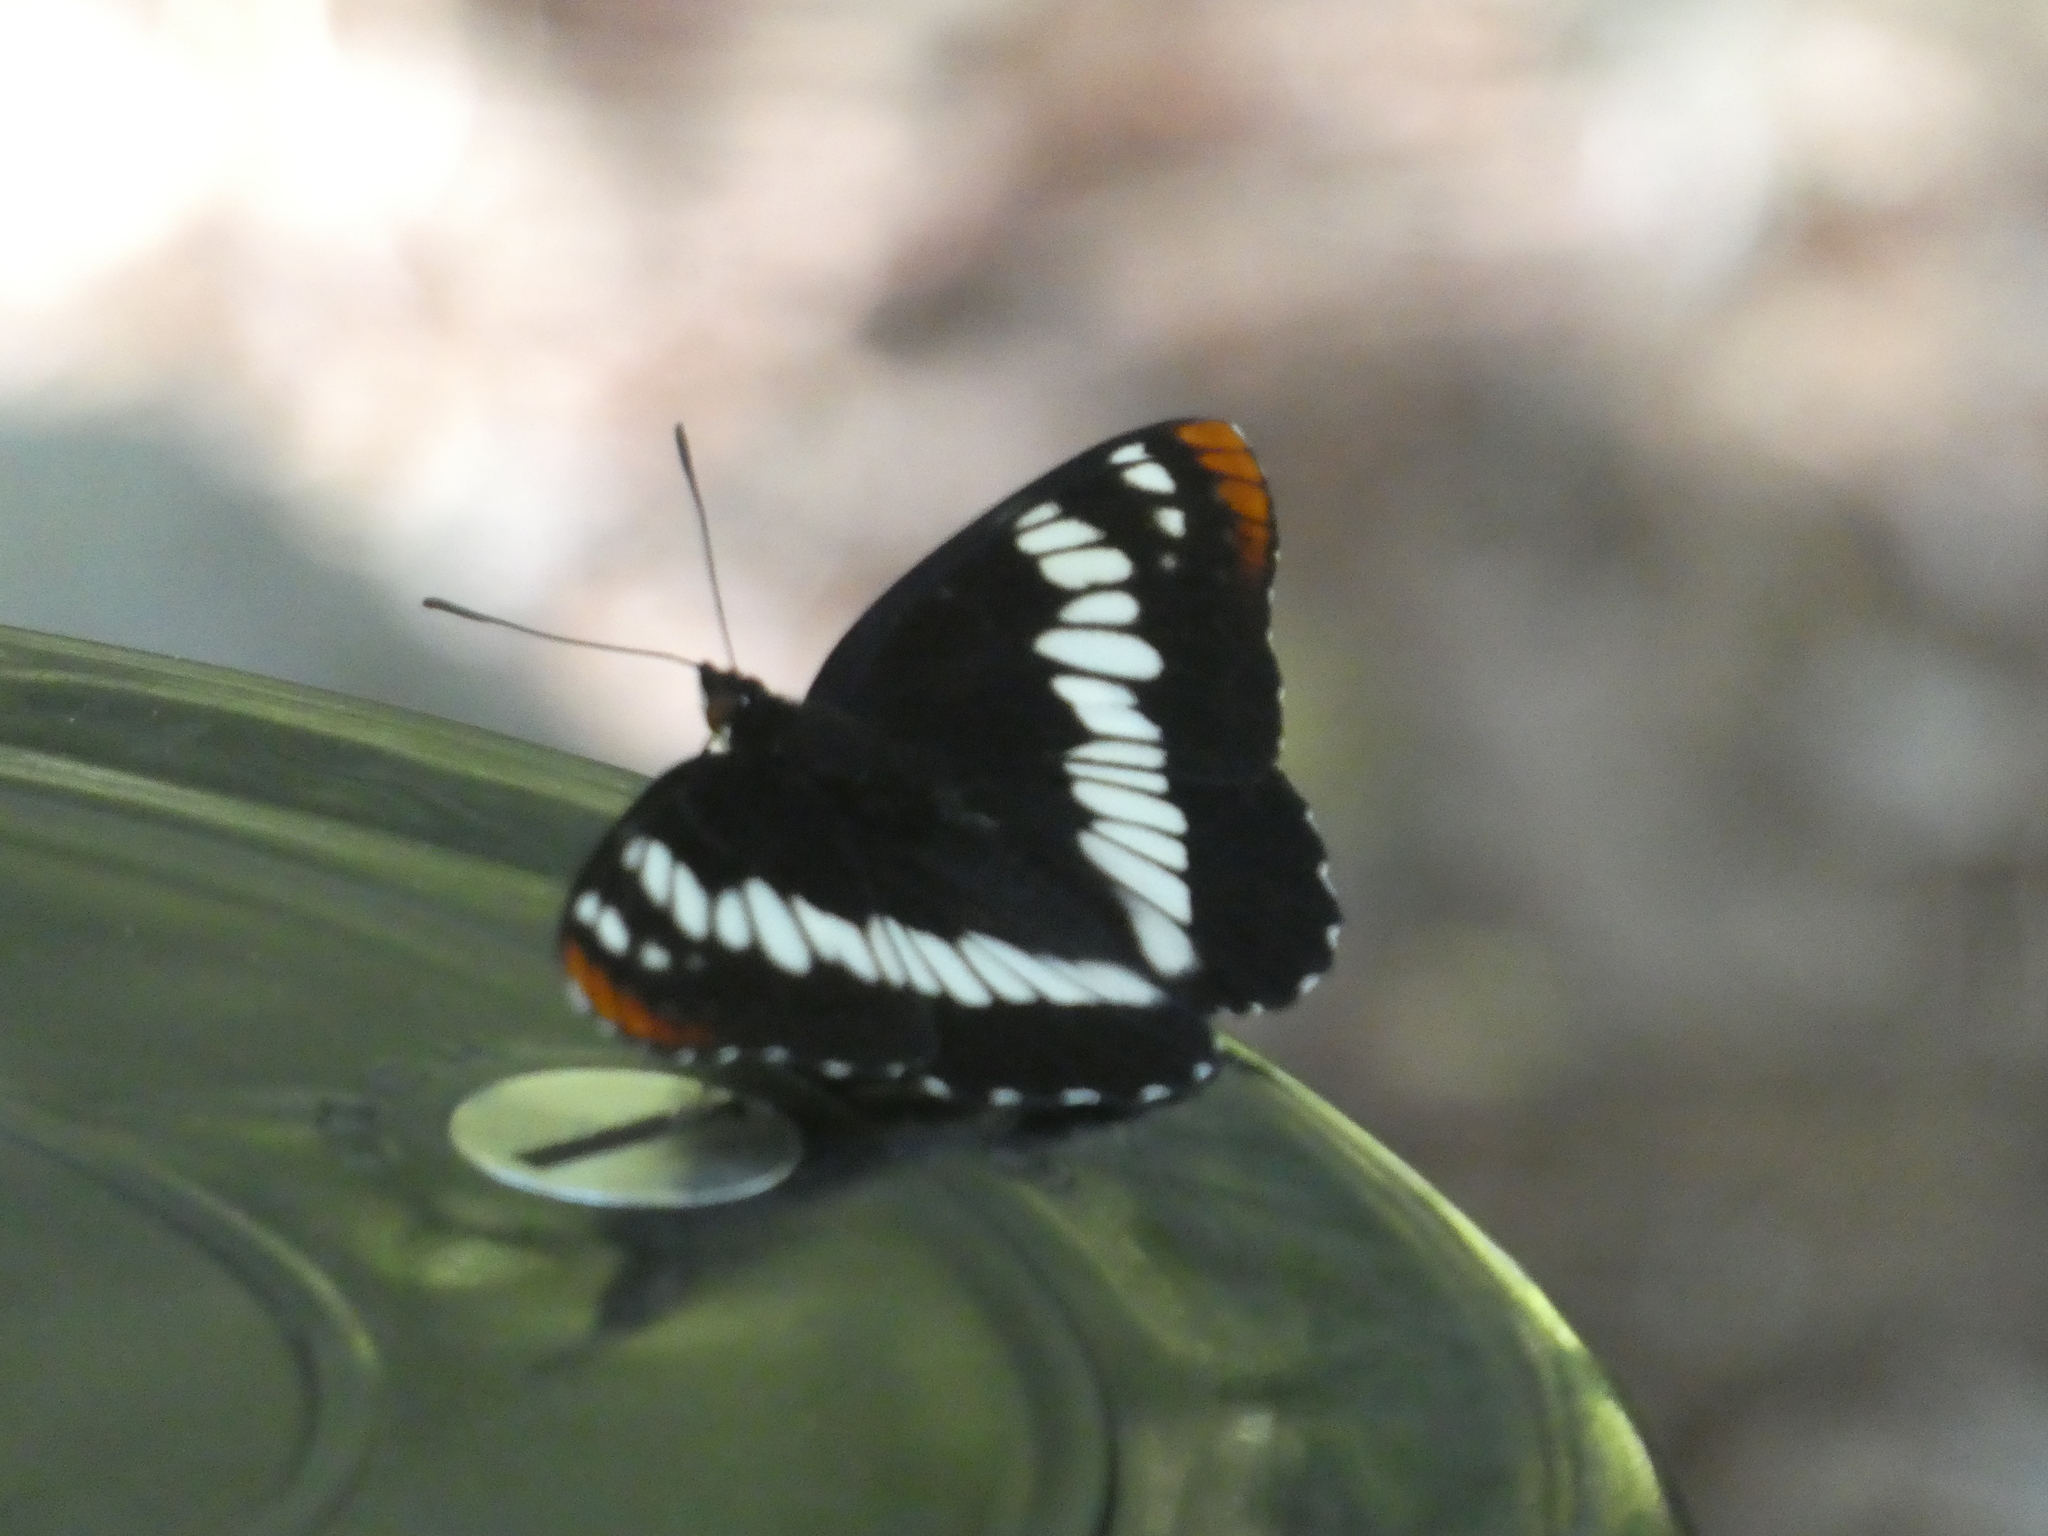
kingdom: Animalia
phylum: Arthropoda
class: Insecta
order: Lepidoptera
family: Nymphalidae
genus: Limenitis
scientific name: Limenitis lorquini
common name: Lorquin's admiral
